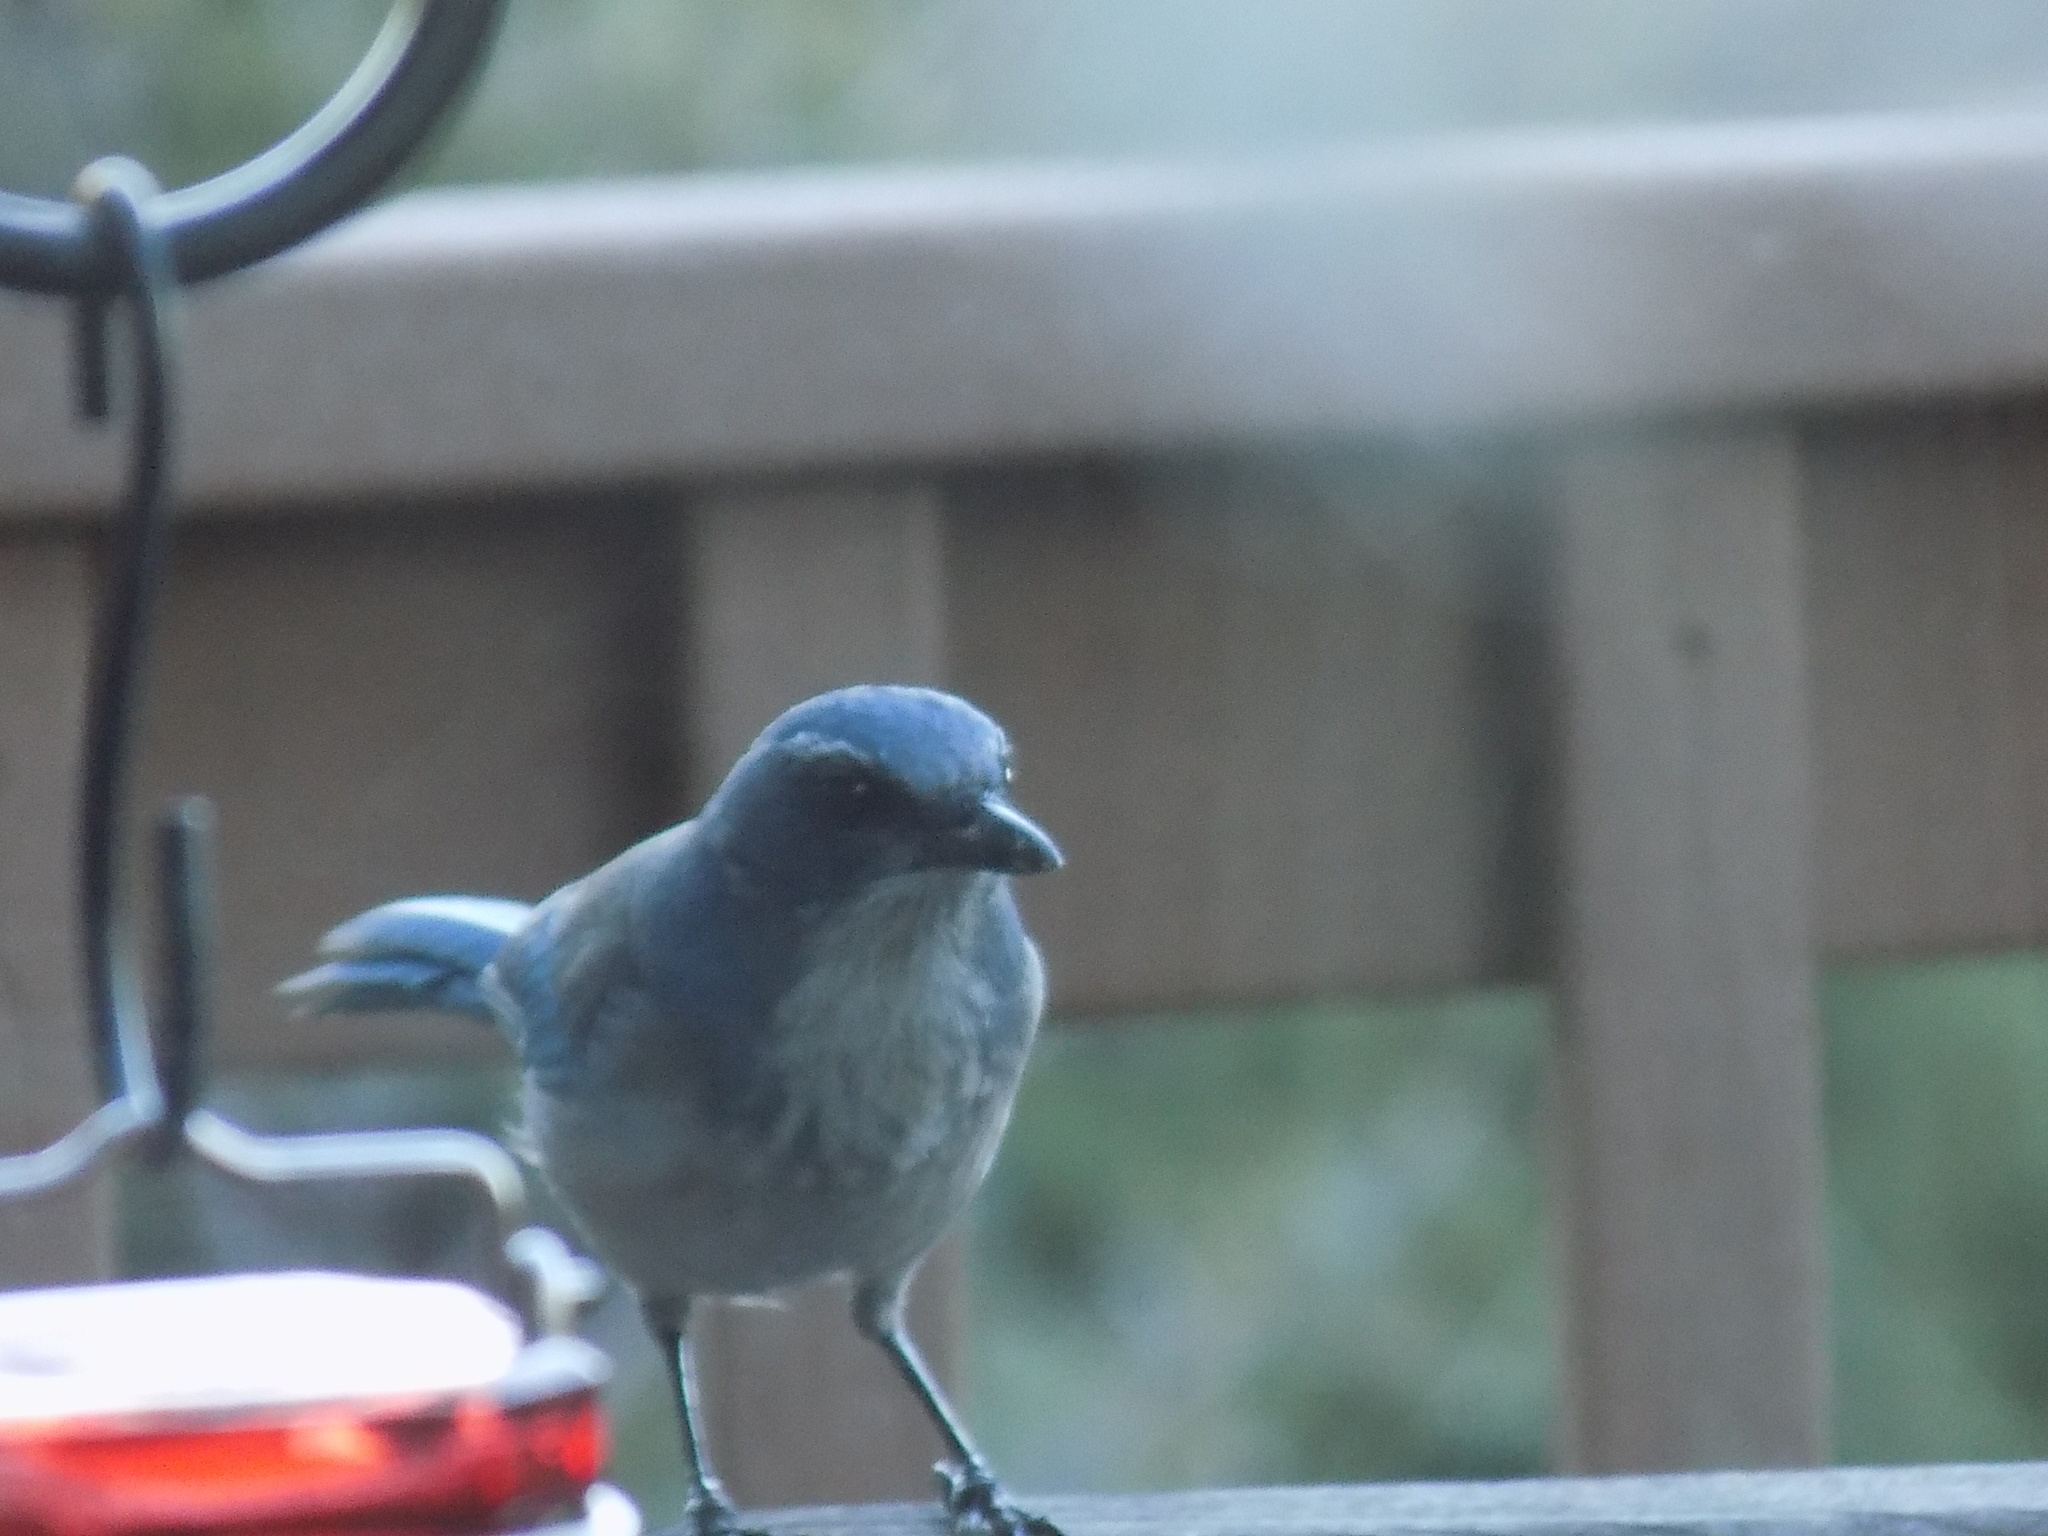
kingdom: Animalia
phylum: Chordata
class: Aves
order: Passeriformes
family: Corvidae
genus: Aphelocoma
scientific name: Aphelocoma woodhouseii
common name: Woodhouse's scrub-jay
